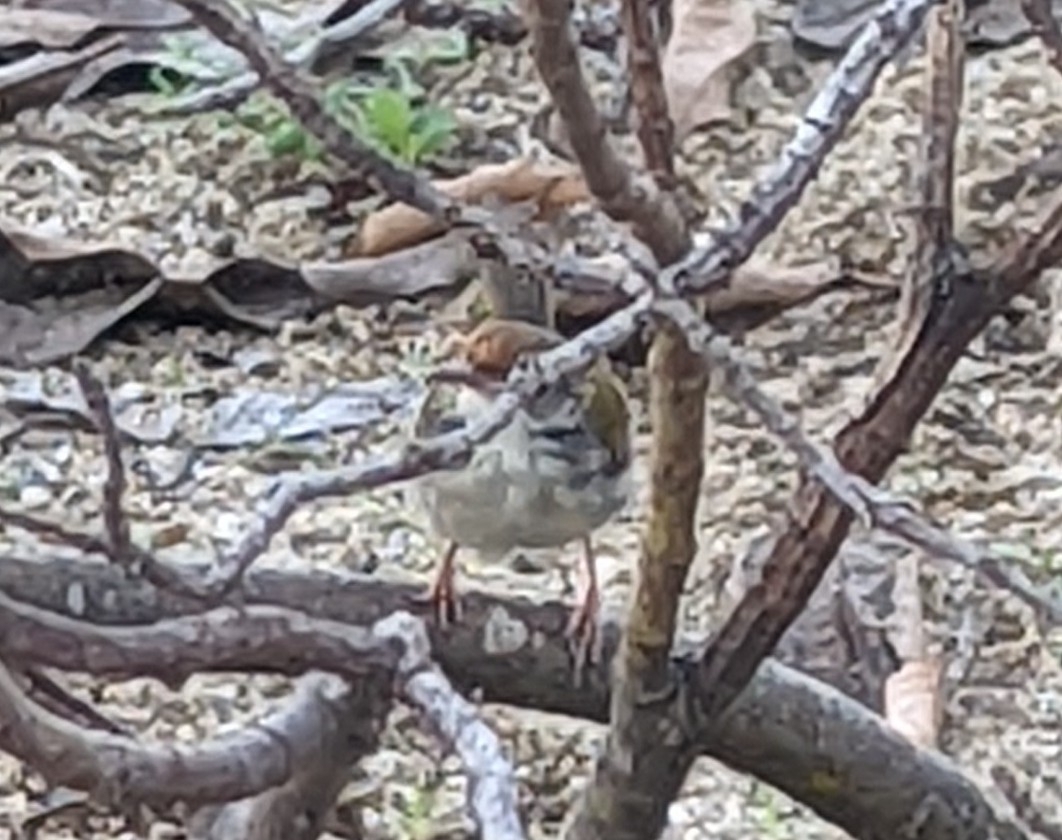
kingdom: Animalia
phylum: Chordata
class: Aves
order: Passeriformes
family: Cisticolidae
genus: Orthotomus
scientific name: Orthotomus sutorius
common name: Common tailorbird
